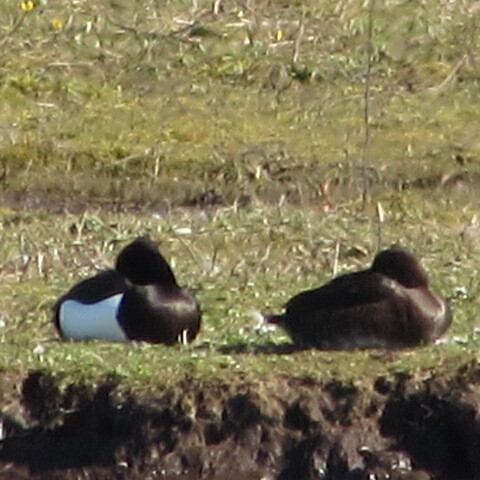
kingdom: Animalia
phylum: Chordata
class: Aves
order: Anseriformes
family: Anatidae
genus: Aythya
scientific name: Aythya fuligula
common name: Tufted duck
